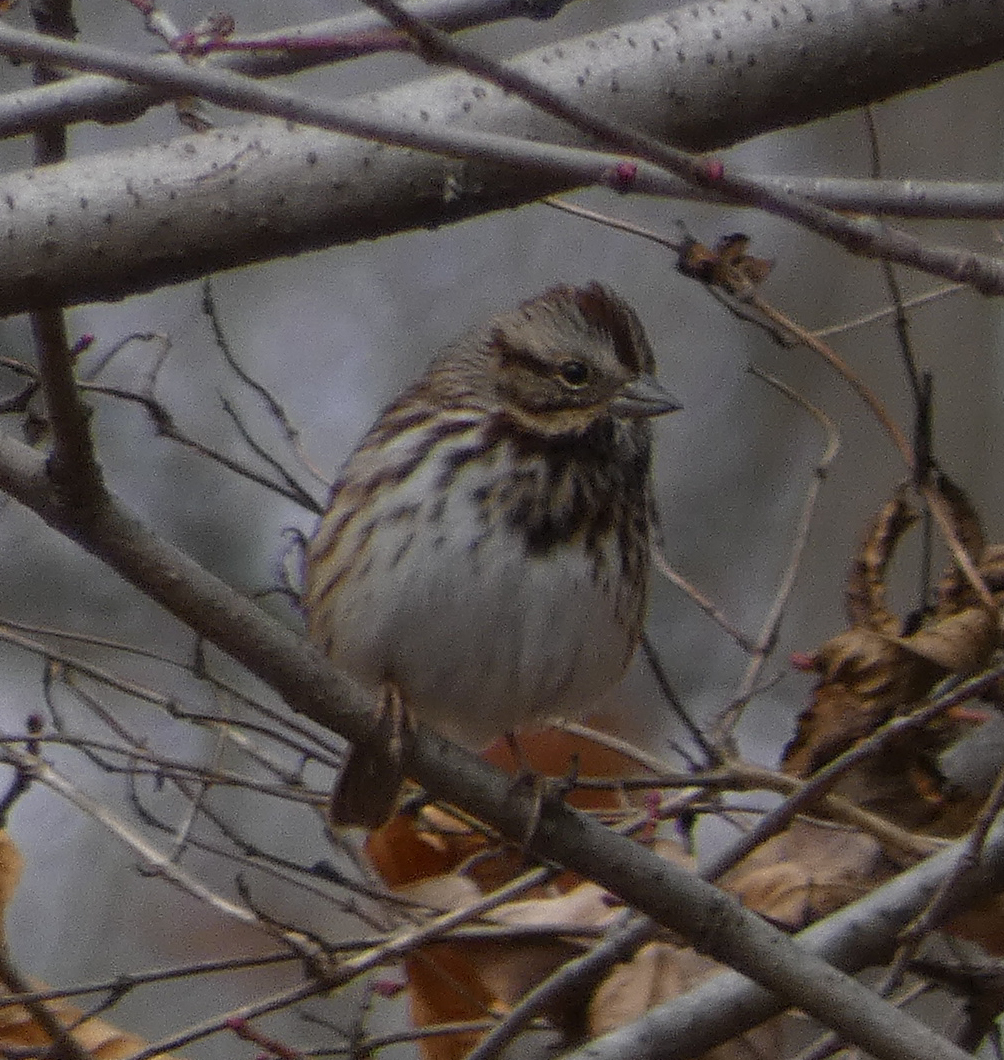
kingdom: Animalia
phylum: Chordata
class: Aves
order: Passeriformes
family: Passerellidae
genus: Melospiza
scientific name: Melospiza melodia
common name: Song sparrow
